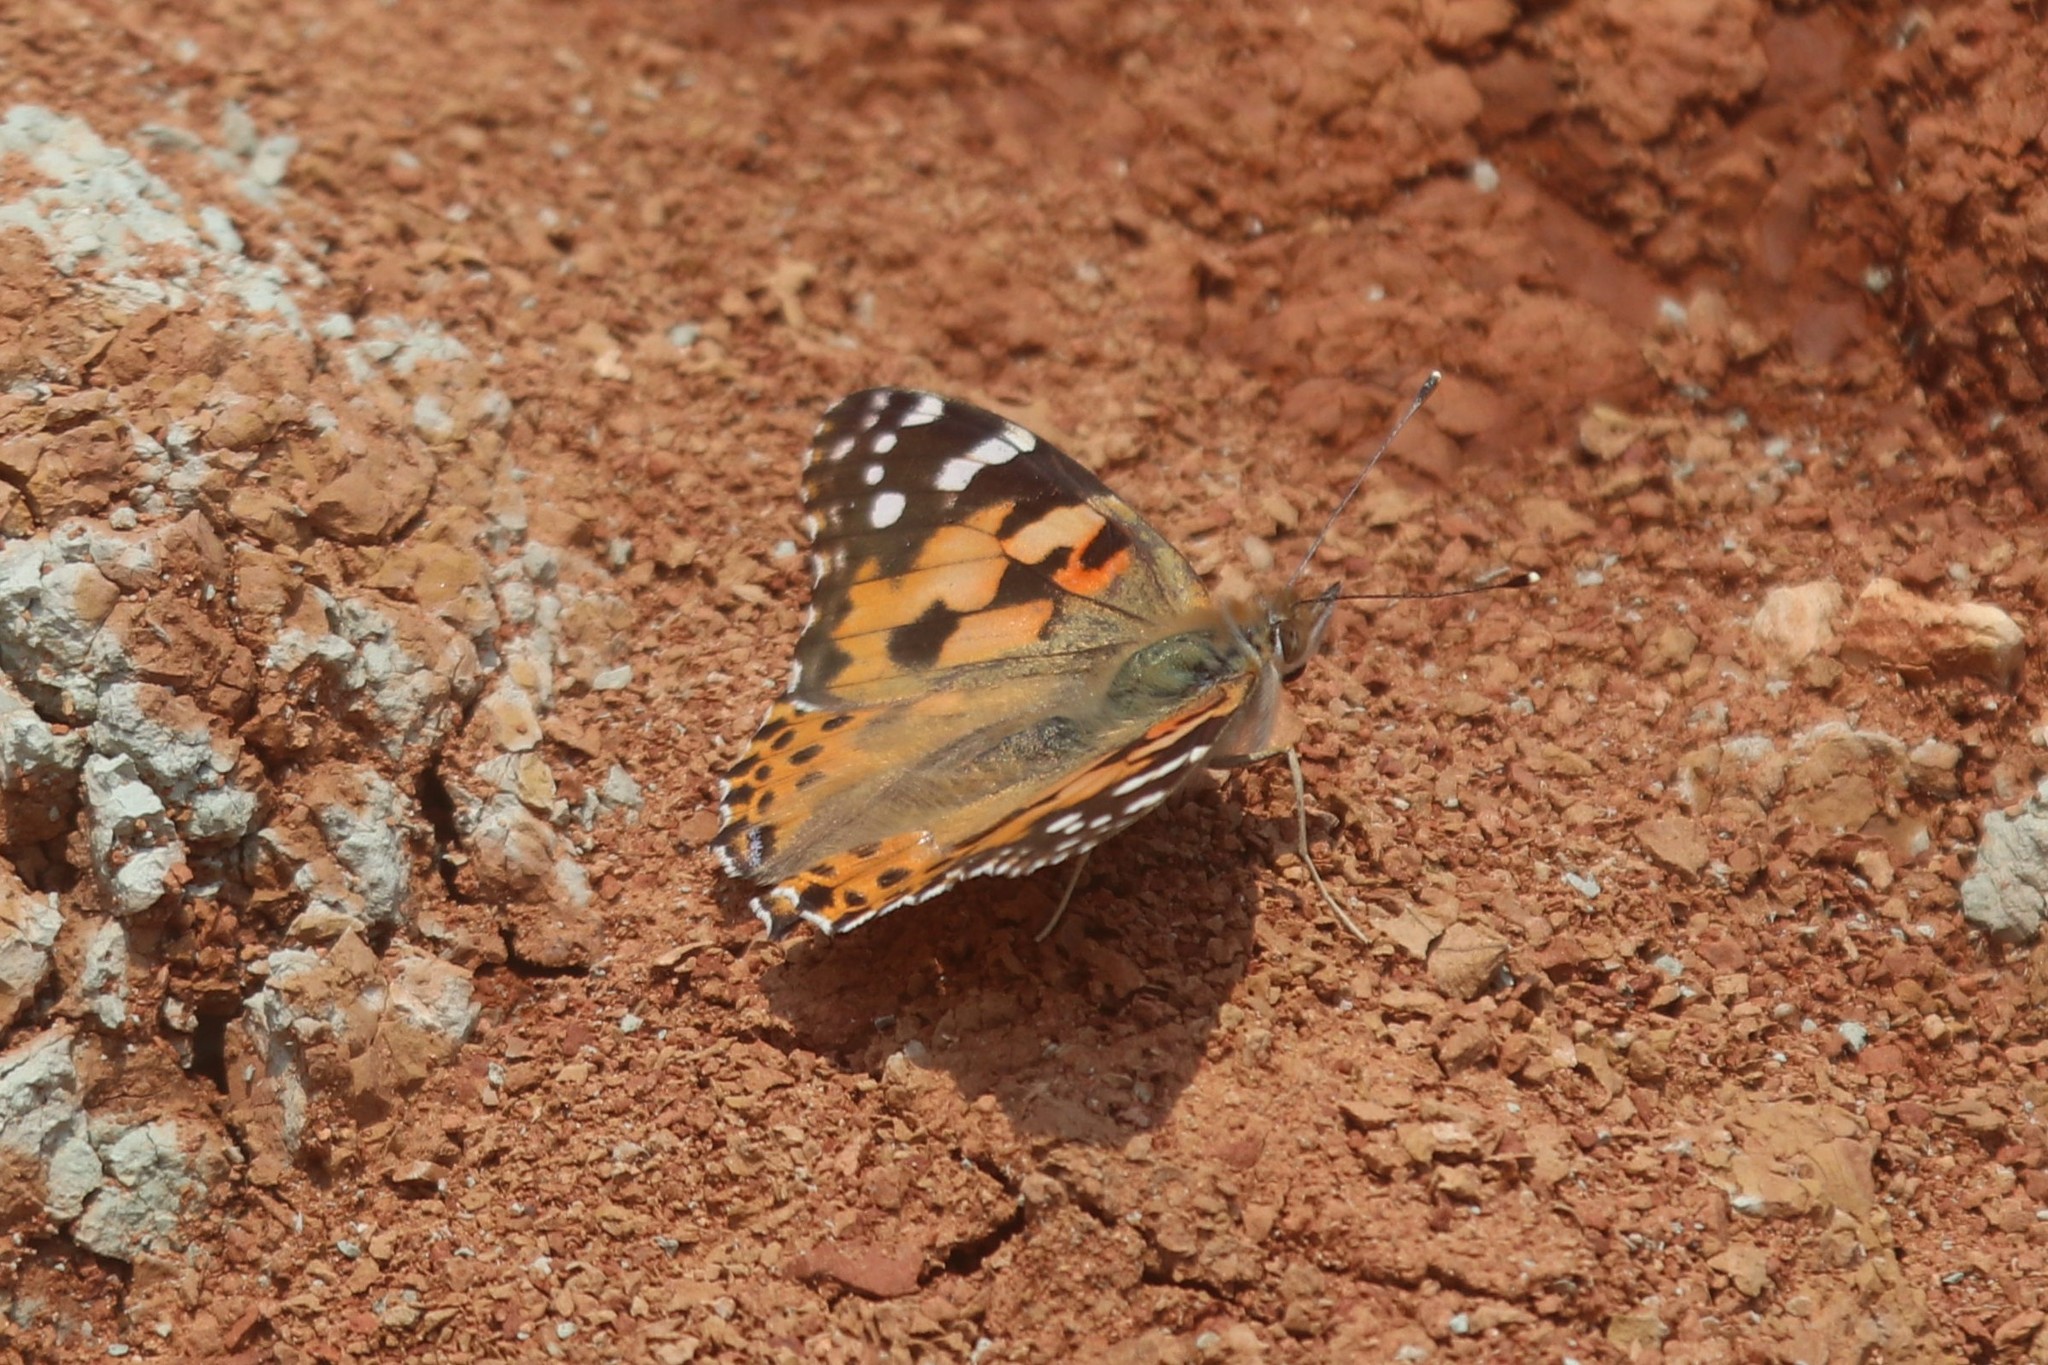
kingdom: Animalia
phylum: Arthropoda
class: Insecta
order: Lepidoptera
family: Nymphalidae
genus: Vanessa
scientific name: Vanessa cardui
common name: Painted lady
